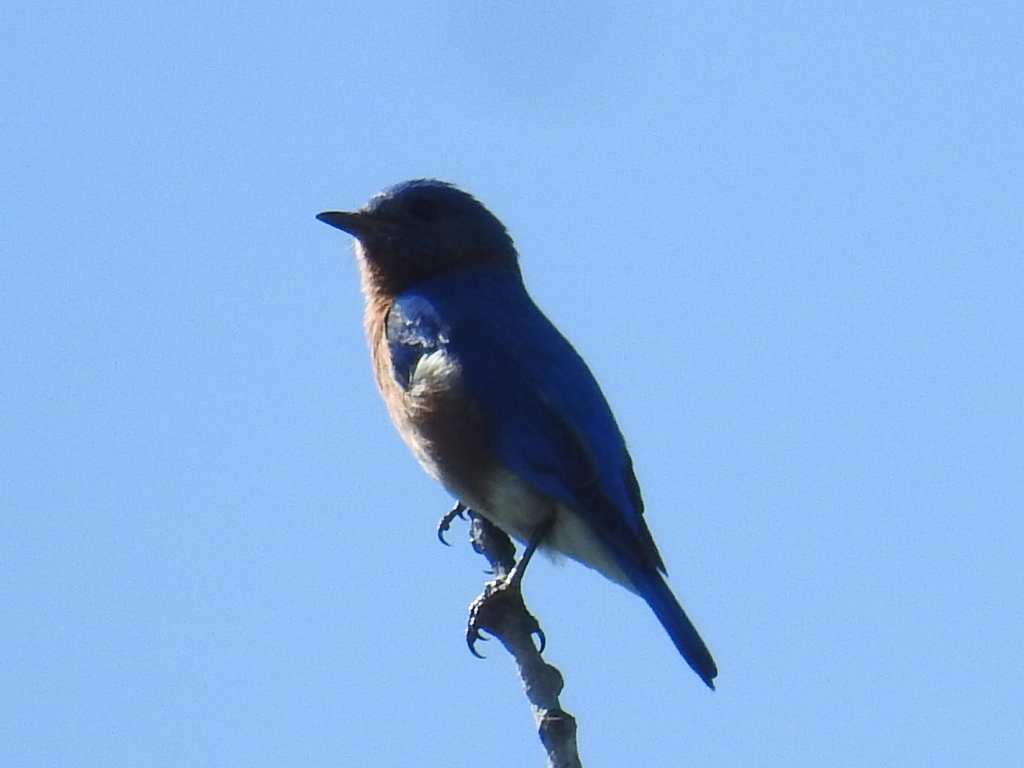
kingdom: Animalia
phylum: Chordata
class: Aves
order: Passeriformes
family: Turdidae
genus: Sialia
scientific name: Sialia sialis
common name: Eastern bluebird
